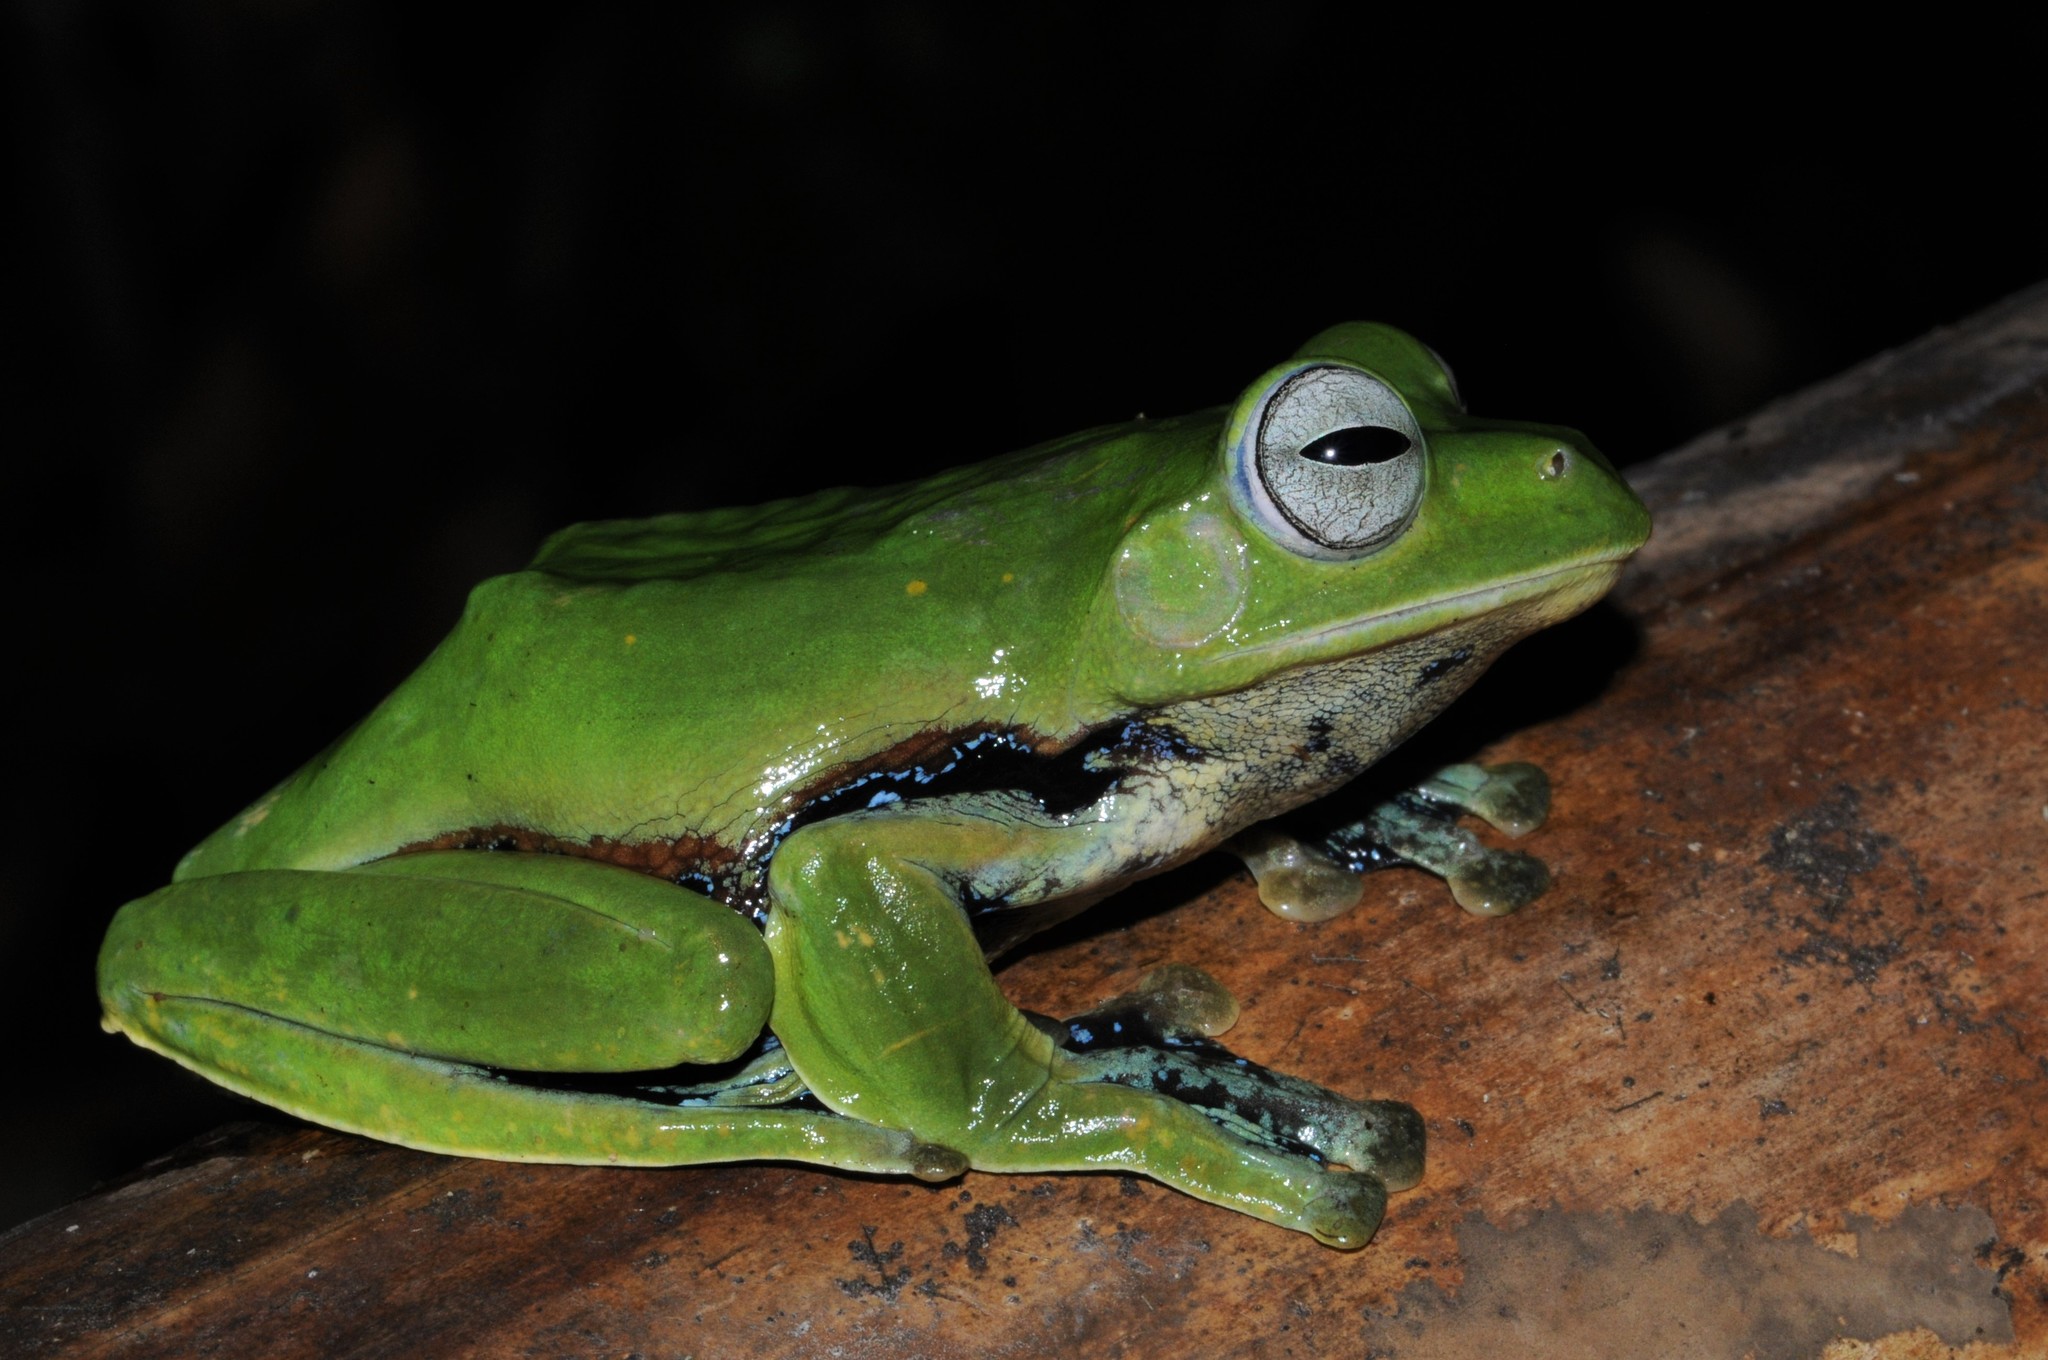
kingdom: Animalia
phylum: Chordata
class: Amphibia
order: Anura
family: Rhacophoridae
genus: Rhacophorus
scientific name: Rhacophorus norhayatii
